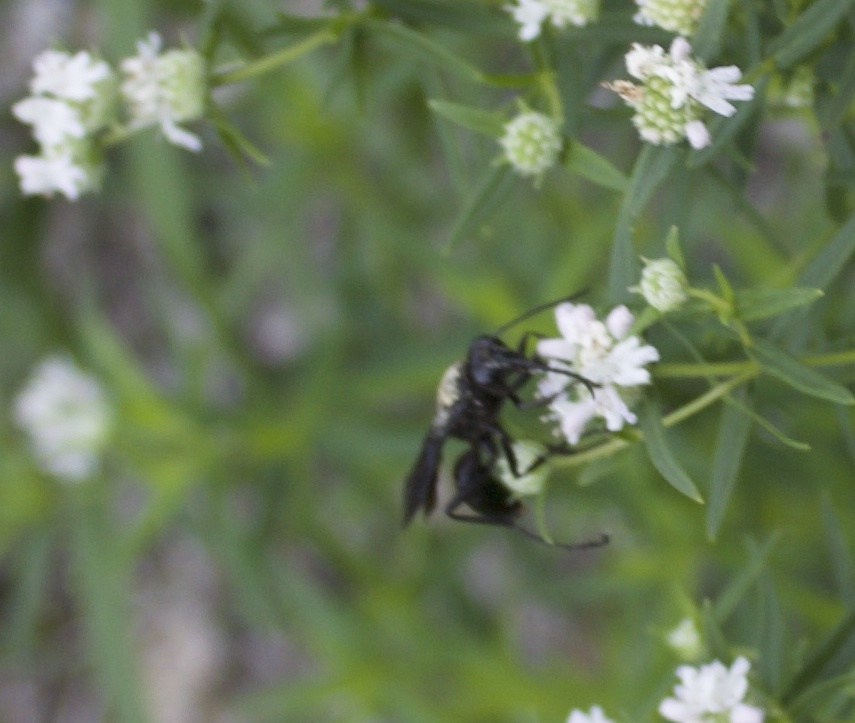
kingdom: Animalia
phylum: Arthropoda
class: Insecta
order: Hymenoptera
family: Sphecidae
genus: Sphex
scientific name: Sphex pensylvanicus
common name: Great black digger wasp
